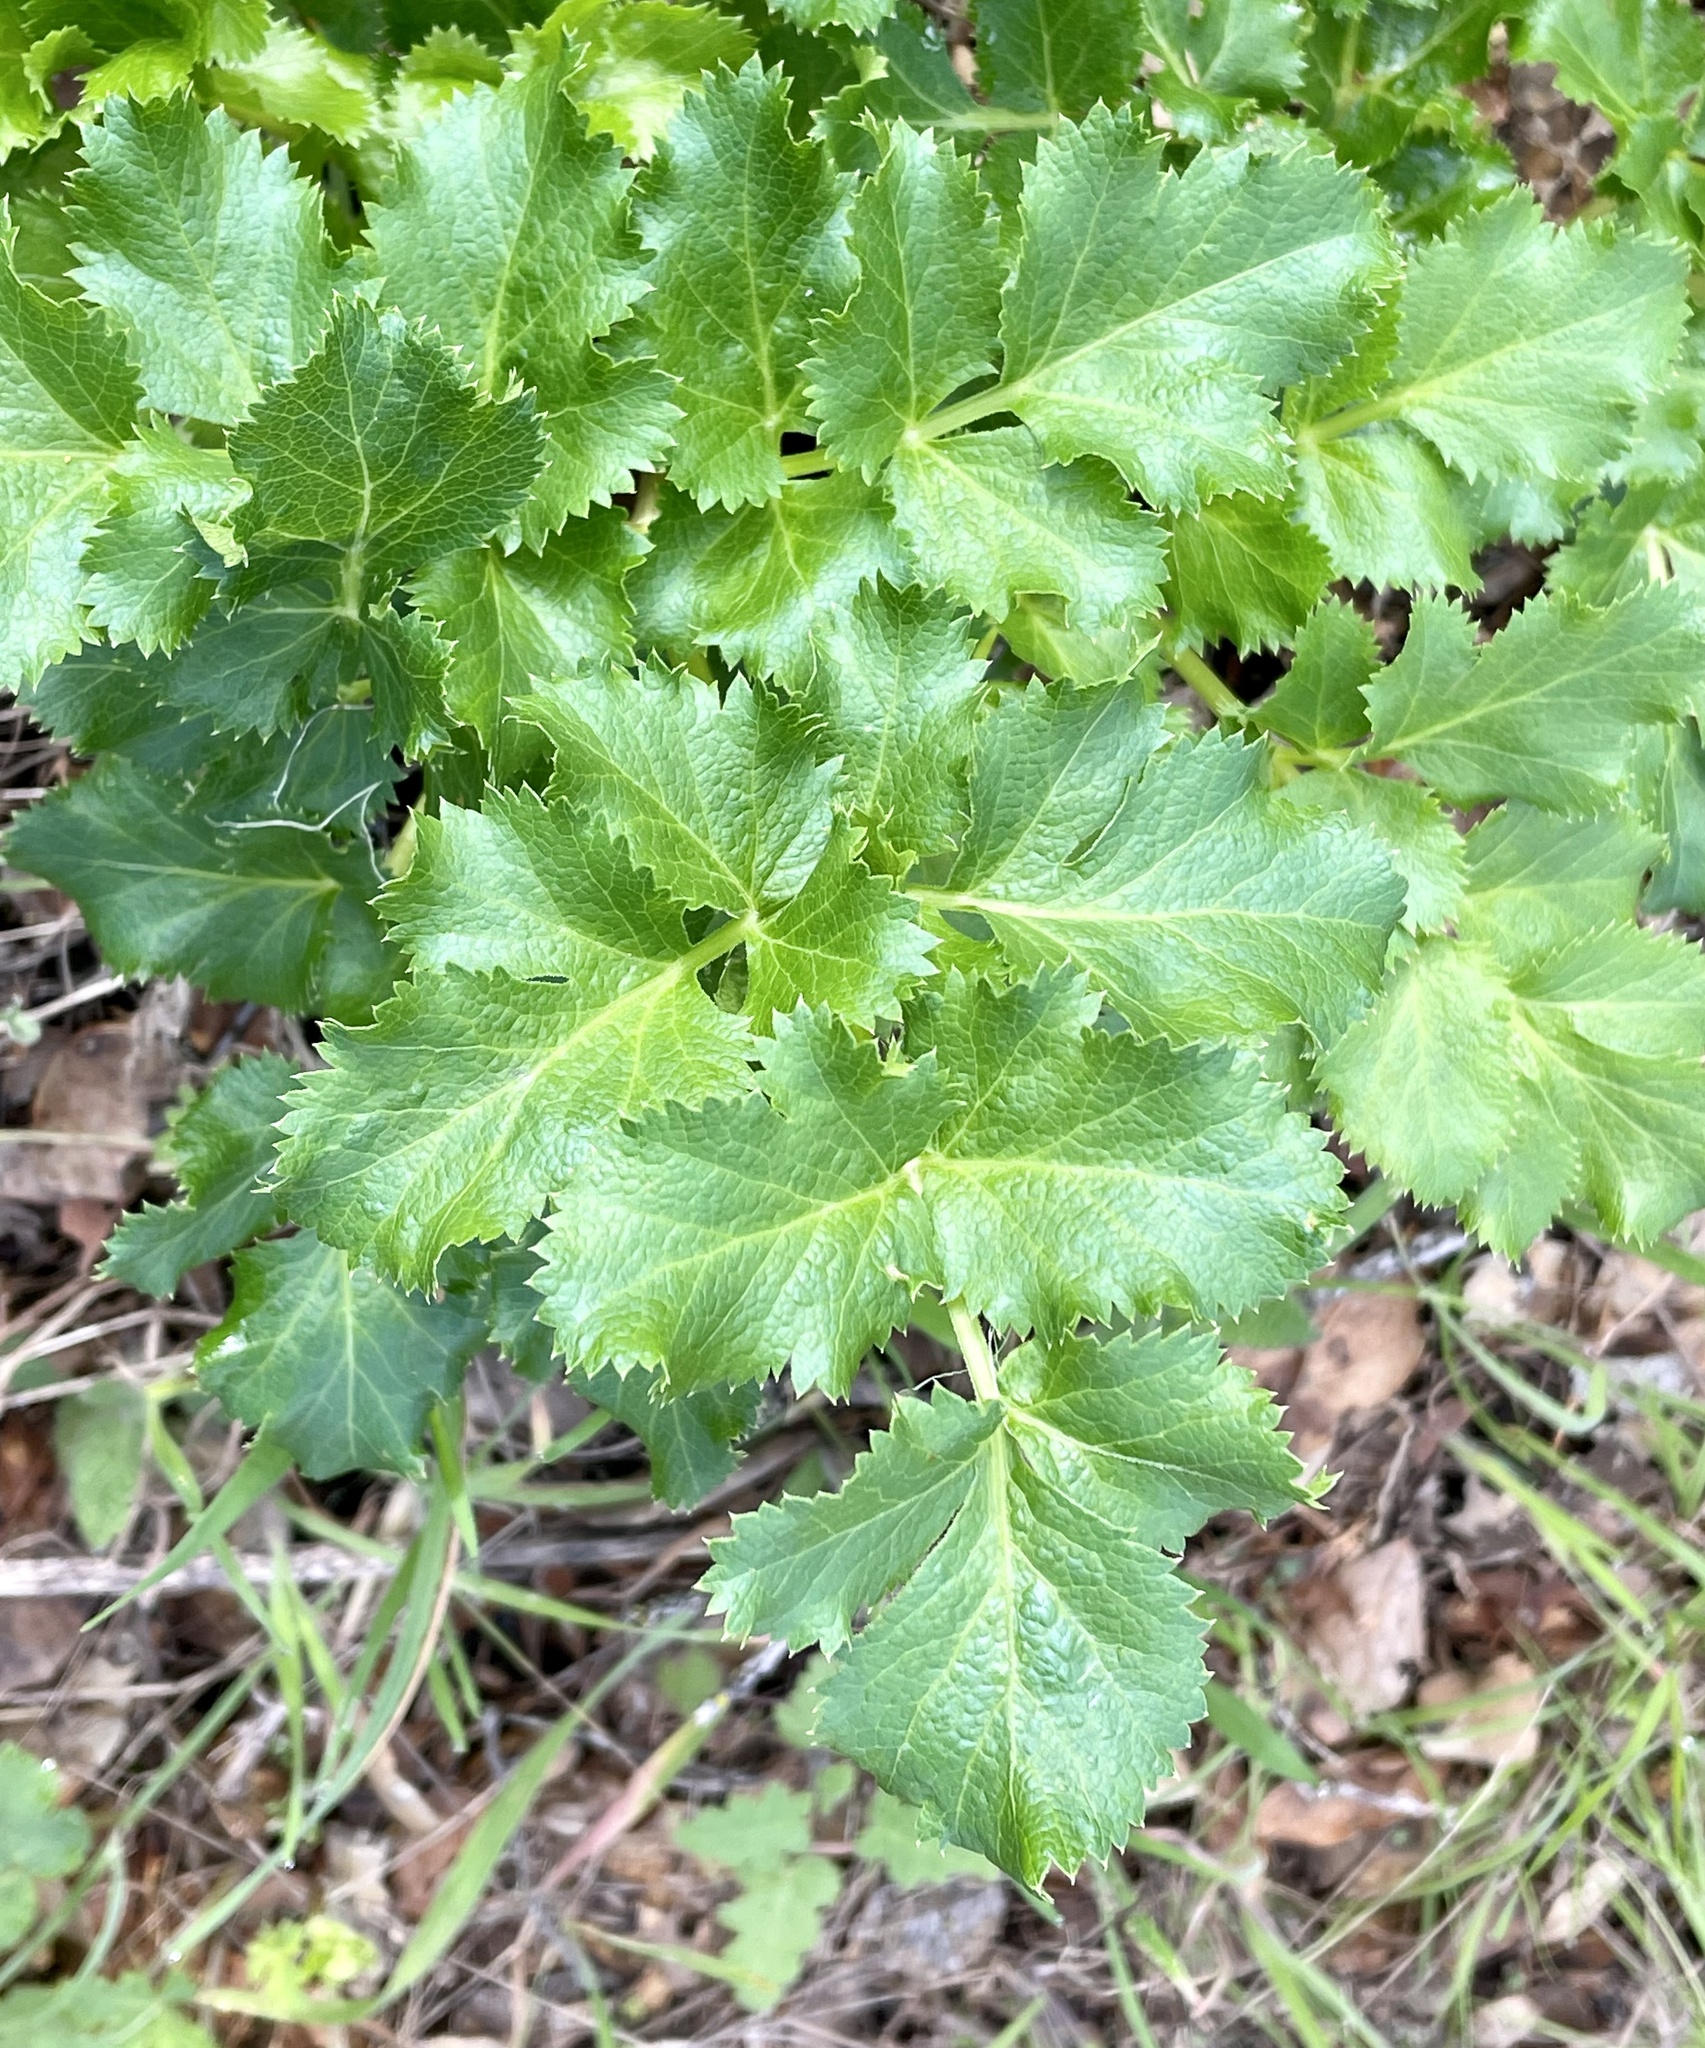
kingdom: Plantae
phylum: Tracheophyta
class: Magnoliopsida
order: Apiales
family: Apiaceae
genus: Tauschia
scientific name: Tauschia hartwegii
